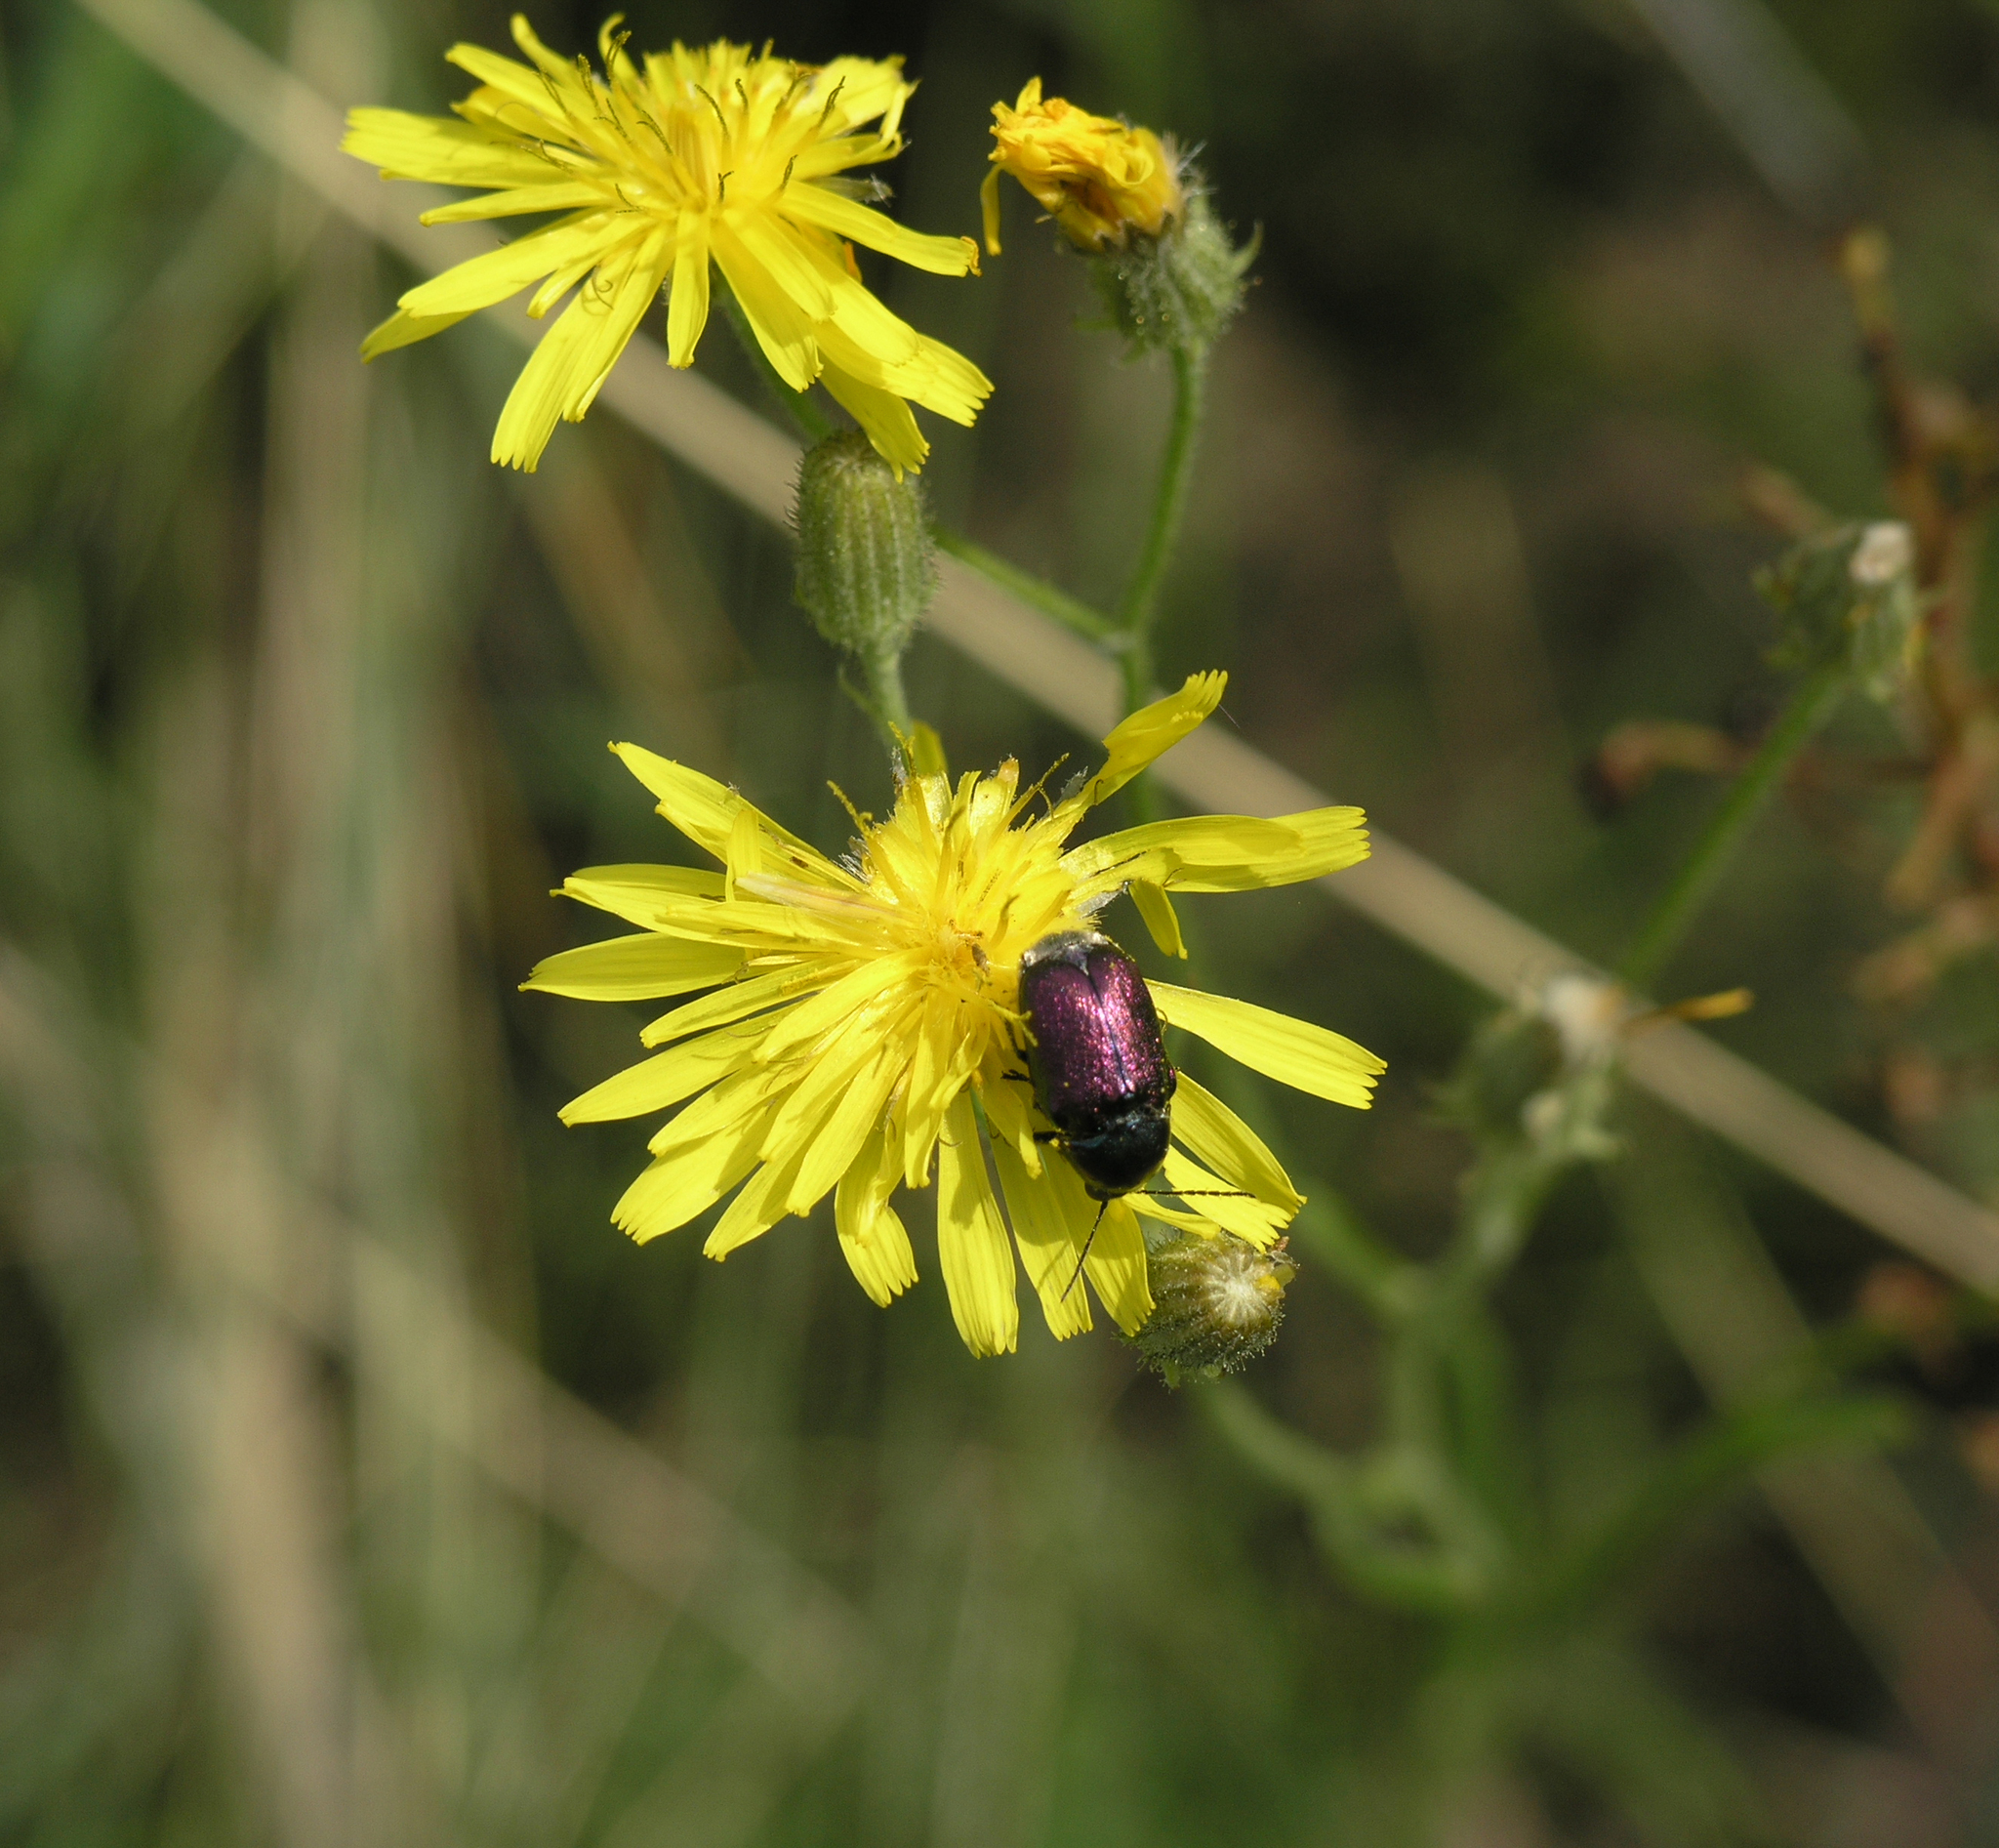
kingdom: Plantae
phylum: Tracheophyta
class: Magnoliopsida
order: Asterales
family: Asteraceae
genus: Crepis
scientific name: Crepis tectorum
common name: Narrow-leaved hawk's-beard
